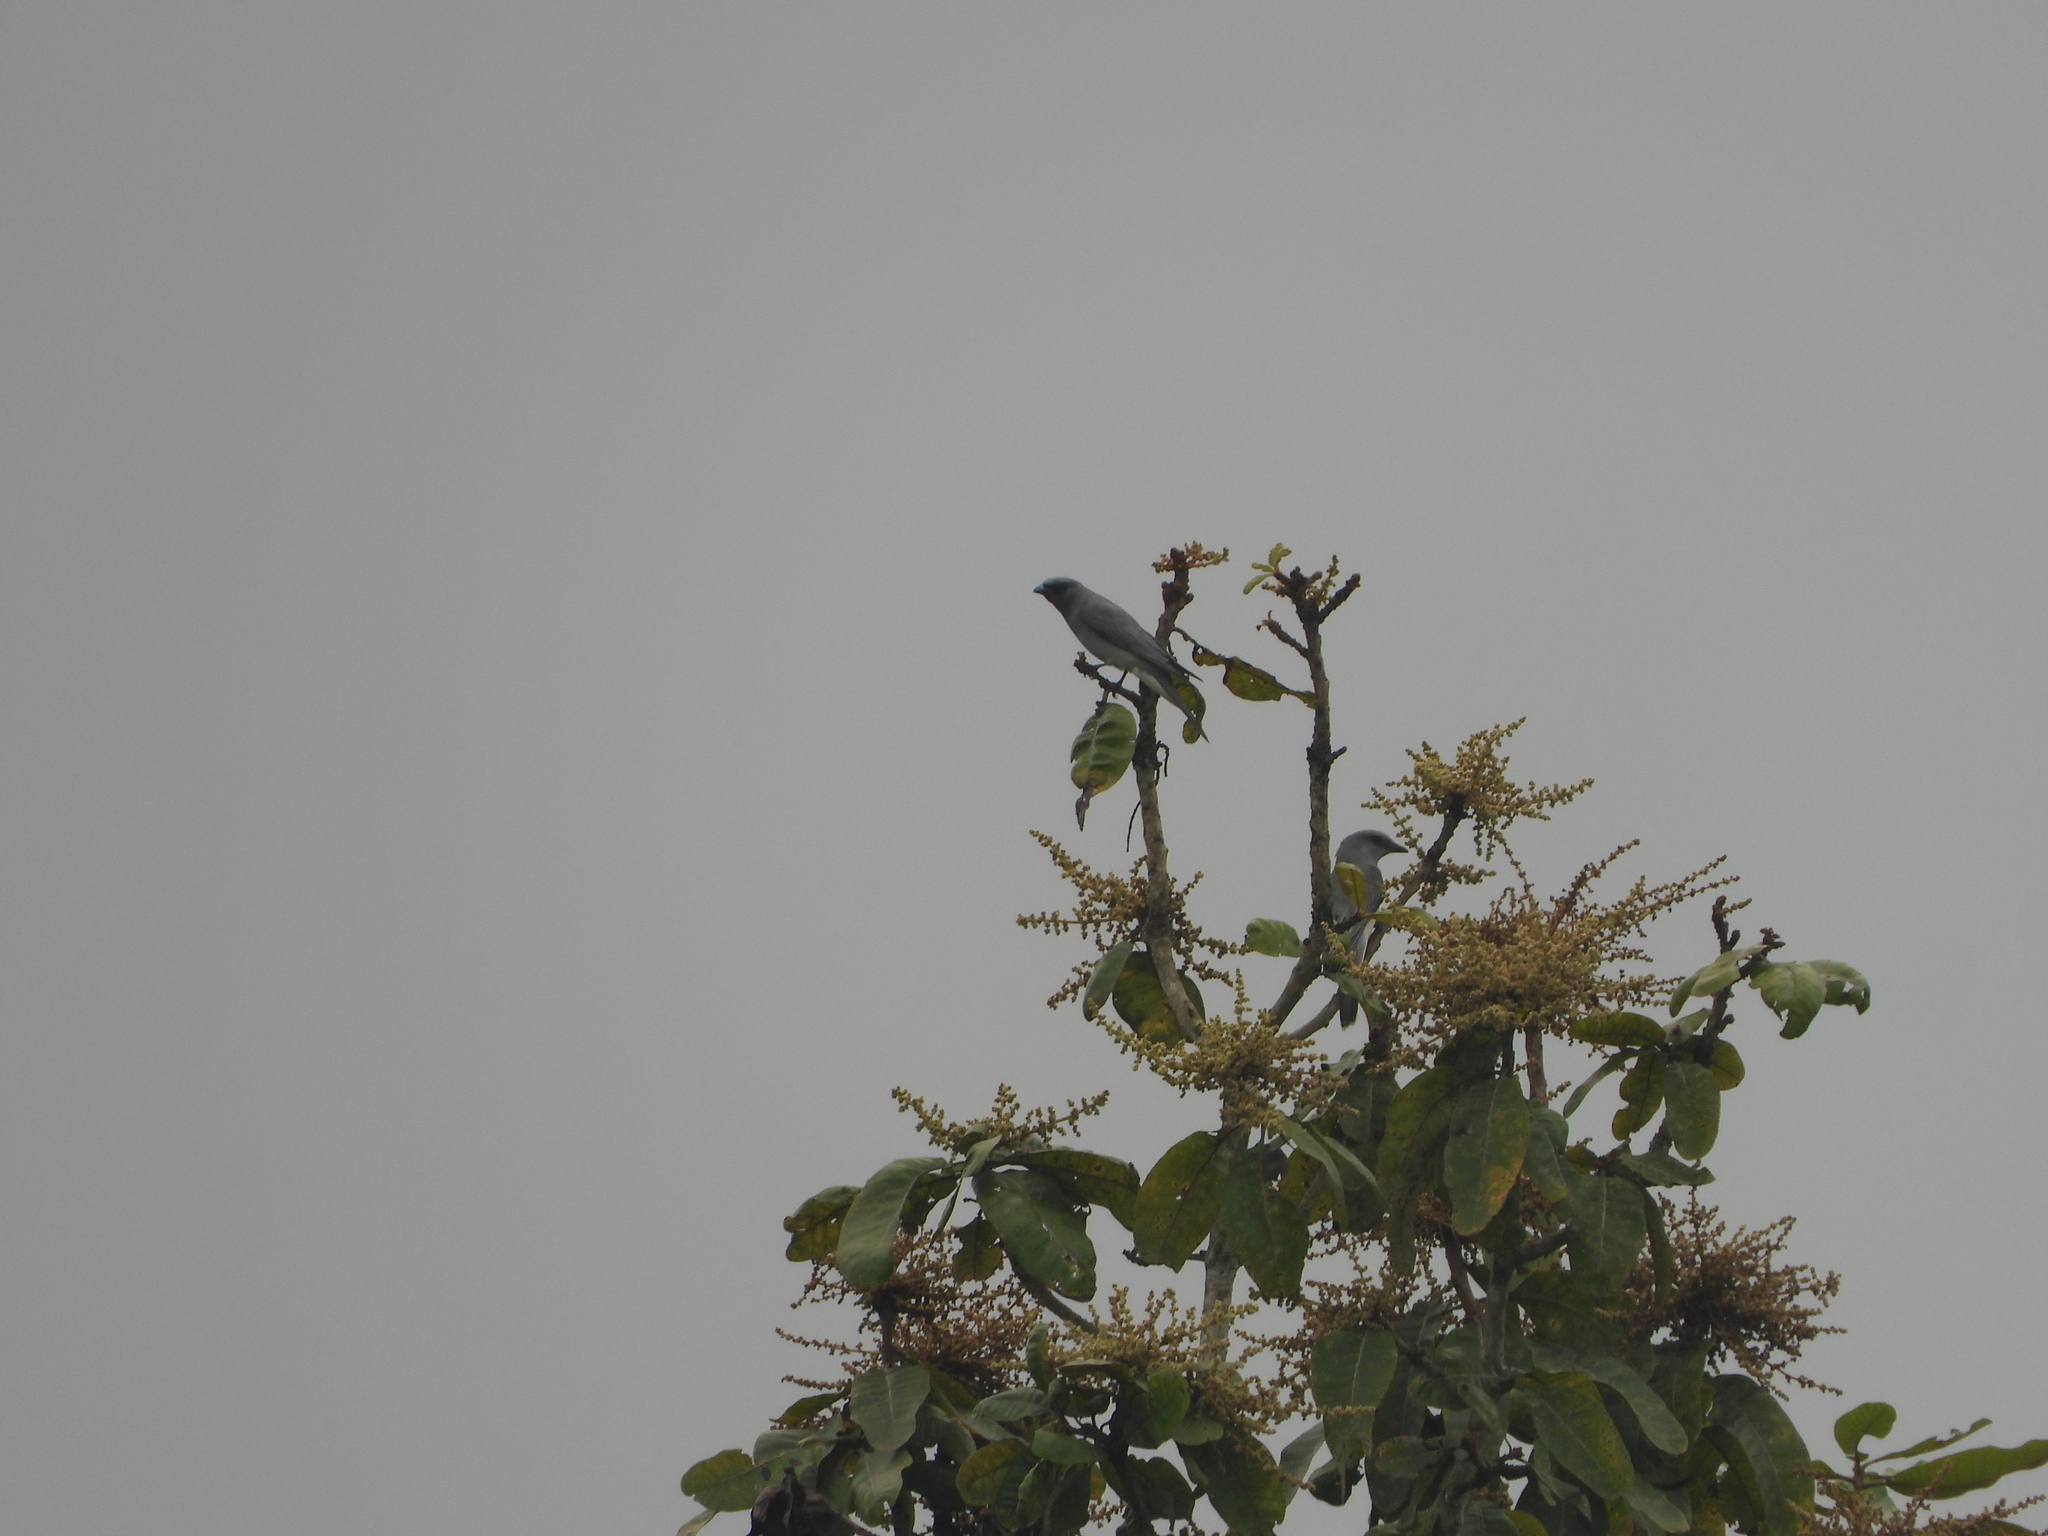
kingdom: Animalia
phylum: Chordata
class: Aves
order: Passeriformes
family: Campephagidae
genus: Coracina
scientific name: Coracina macei
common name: Large cuckooshrike
